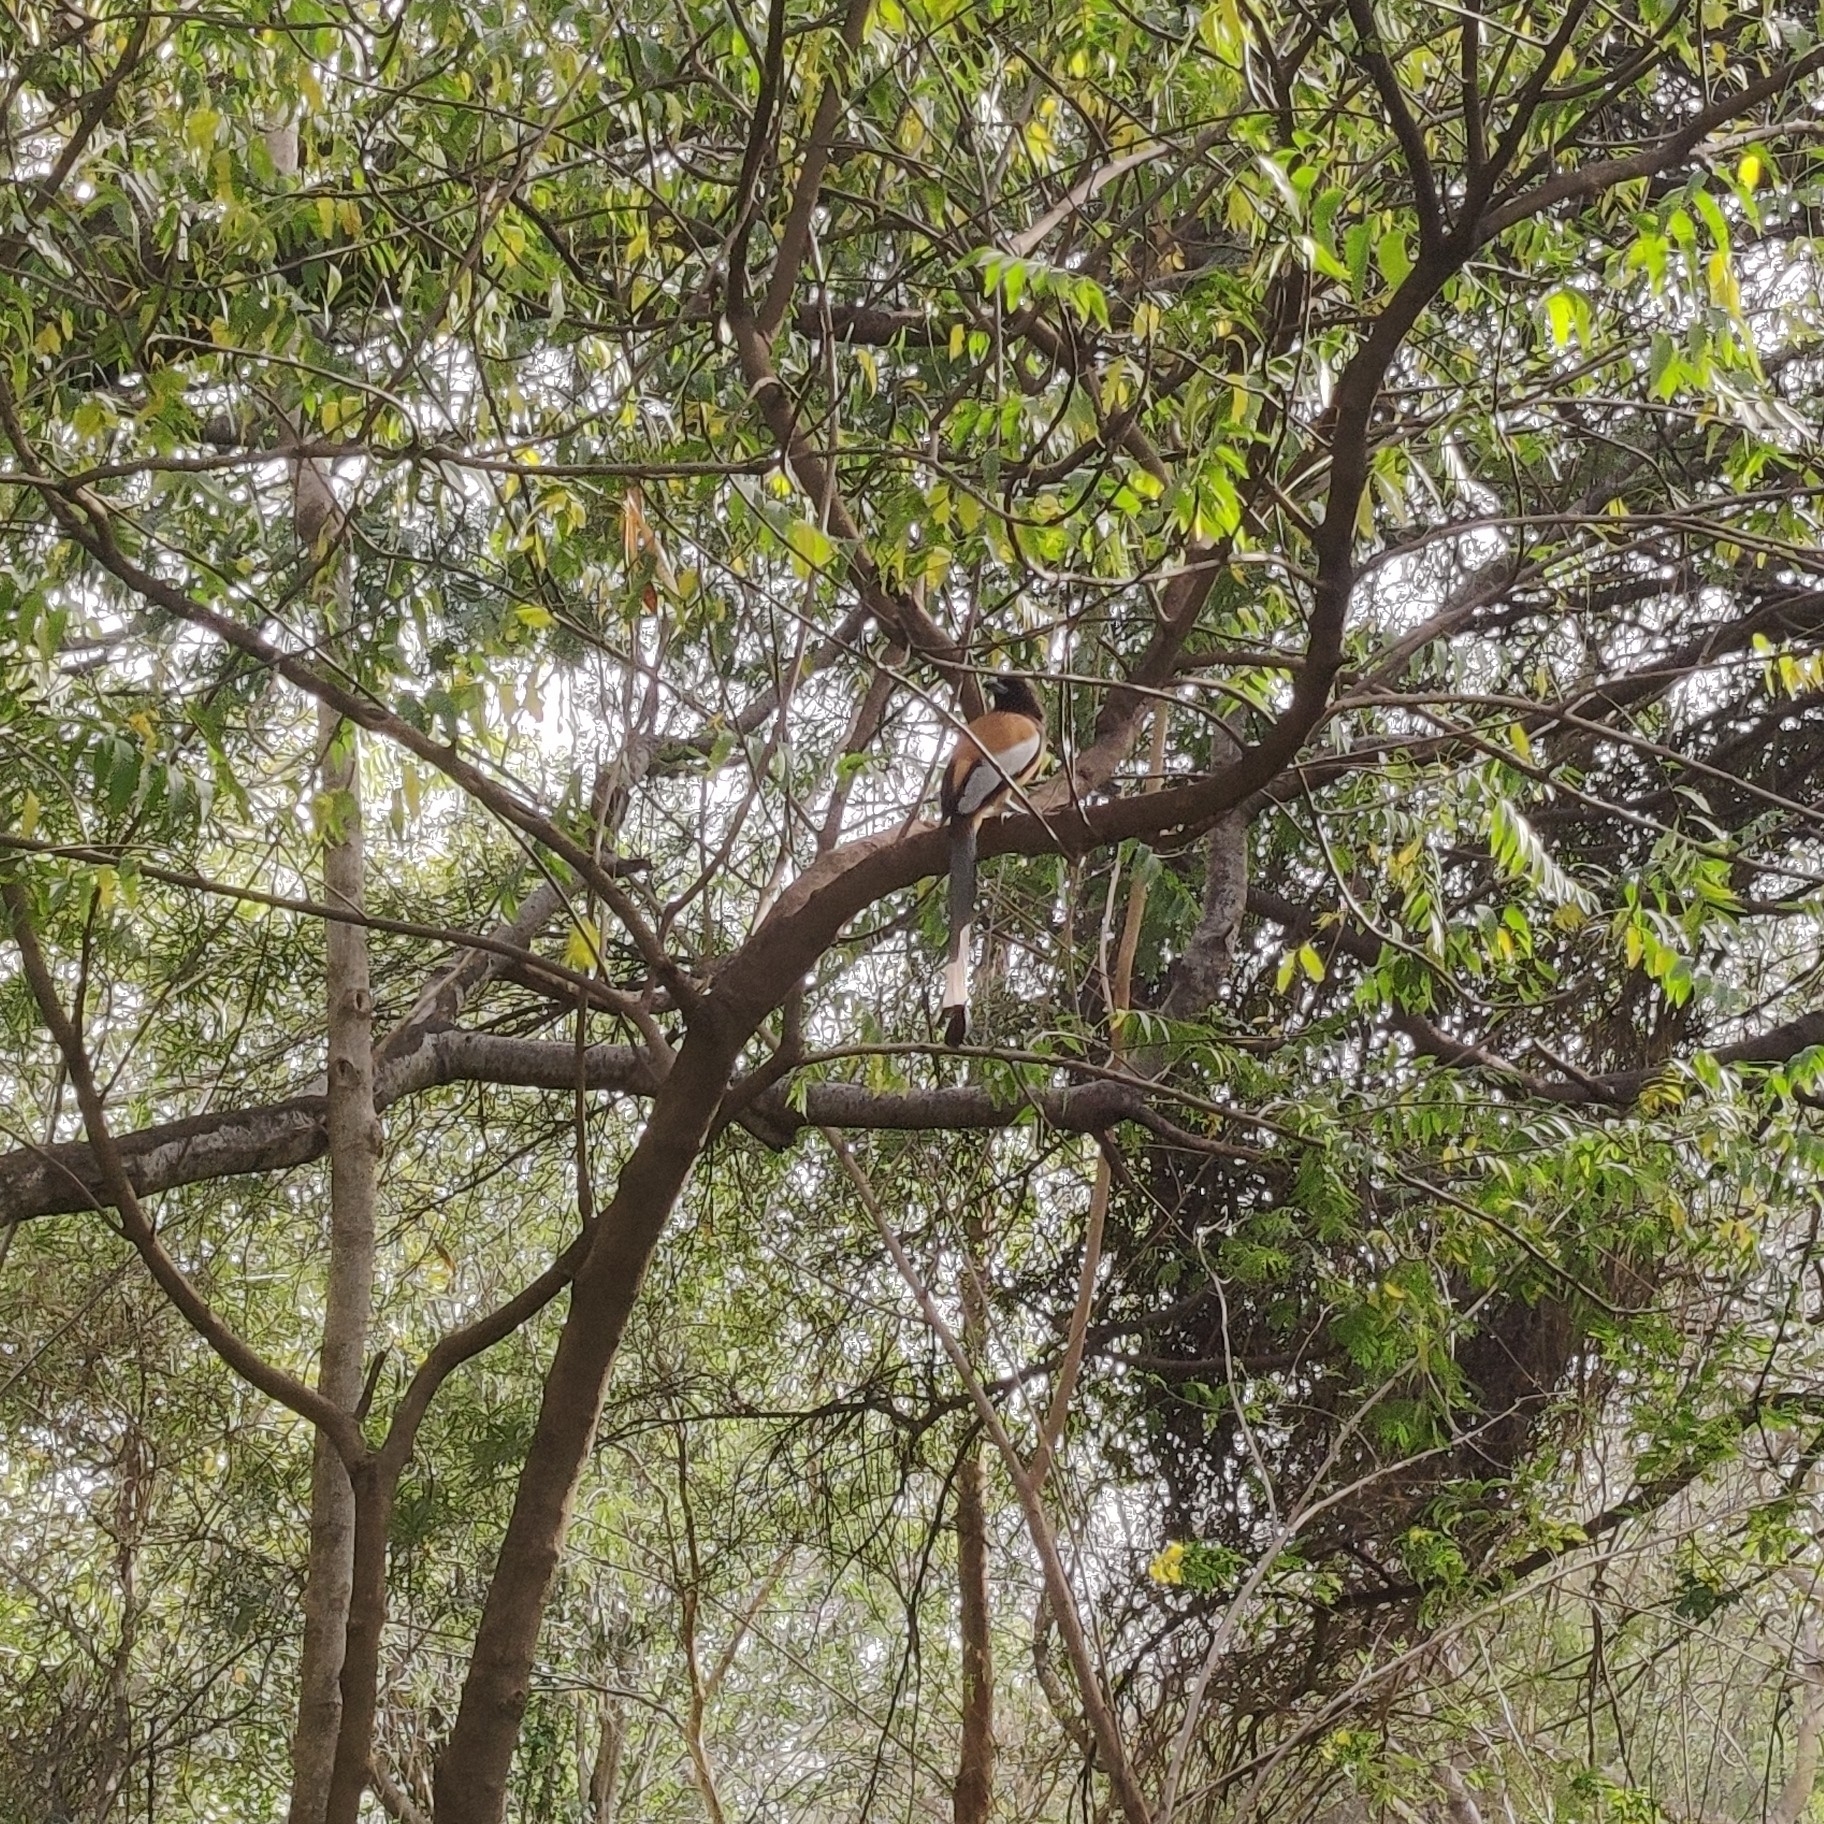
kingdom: Animalia
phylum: Chordata
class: Aves
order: Passeriformes
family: Corvidae
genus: Dendrocitta
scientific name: Dendrocitta vagabunda
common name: Rufous treepie
